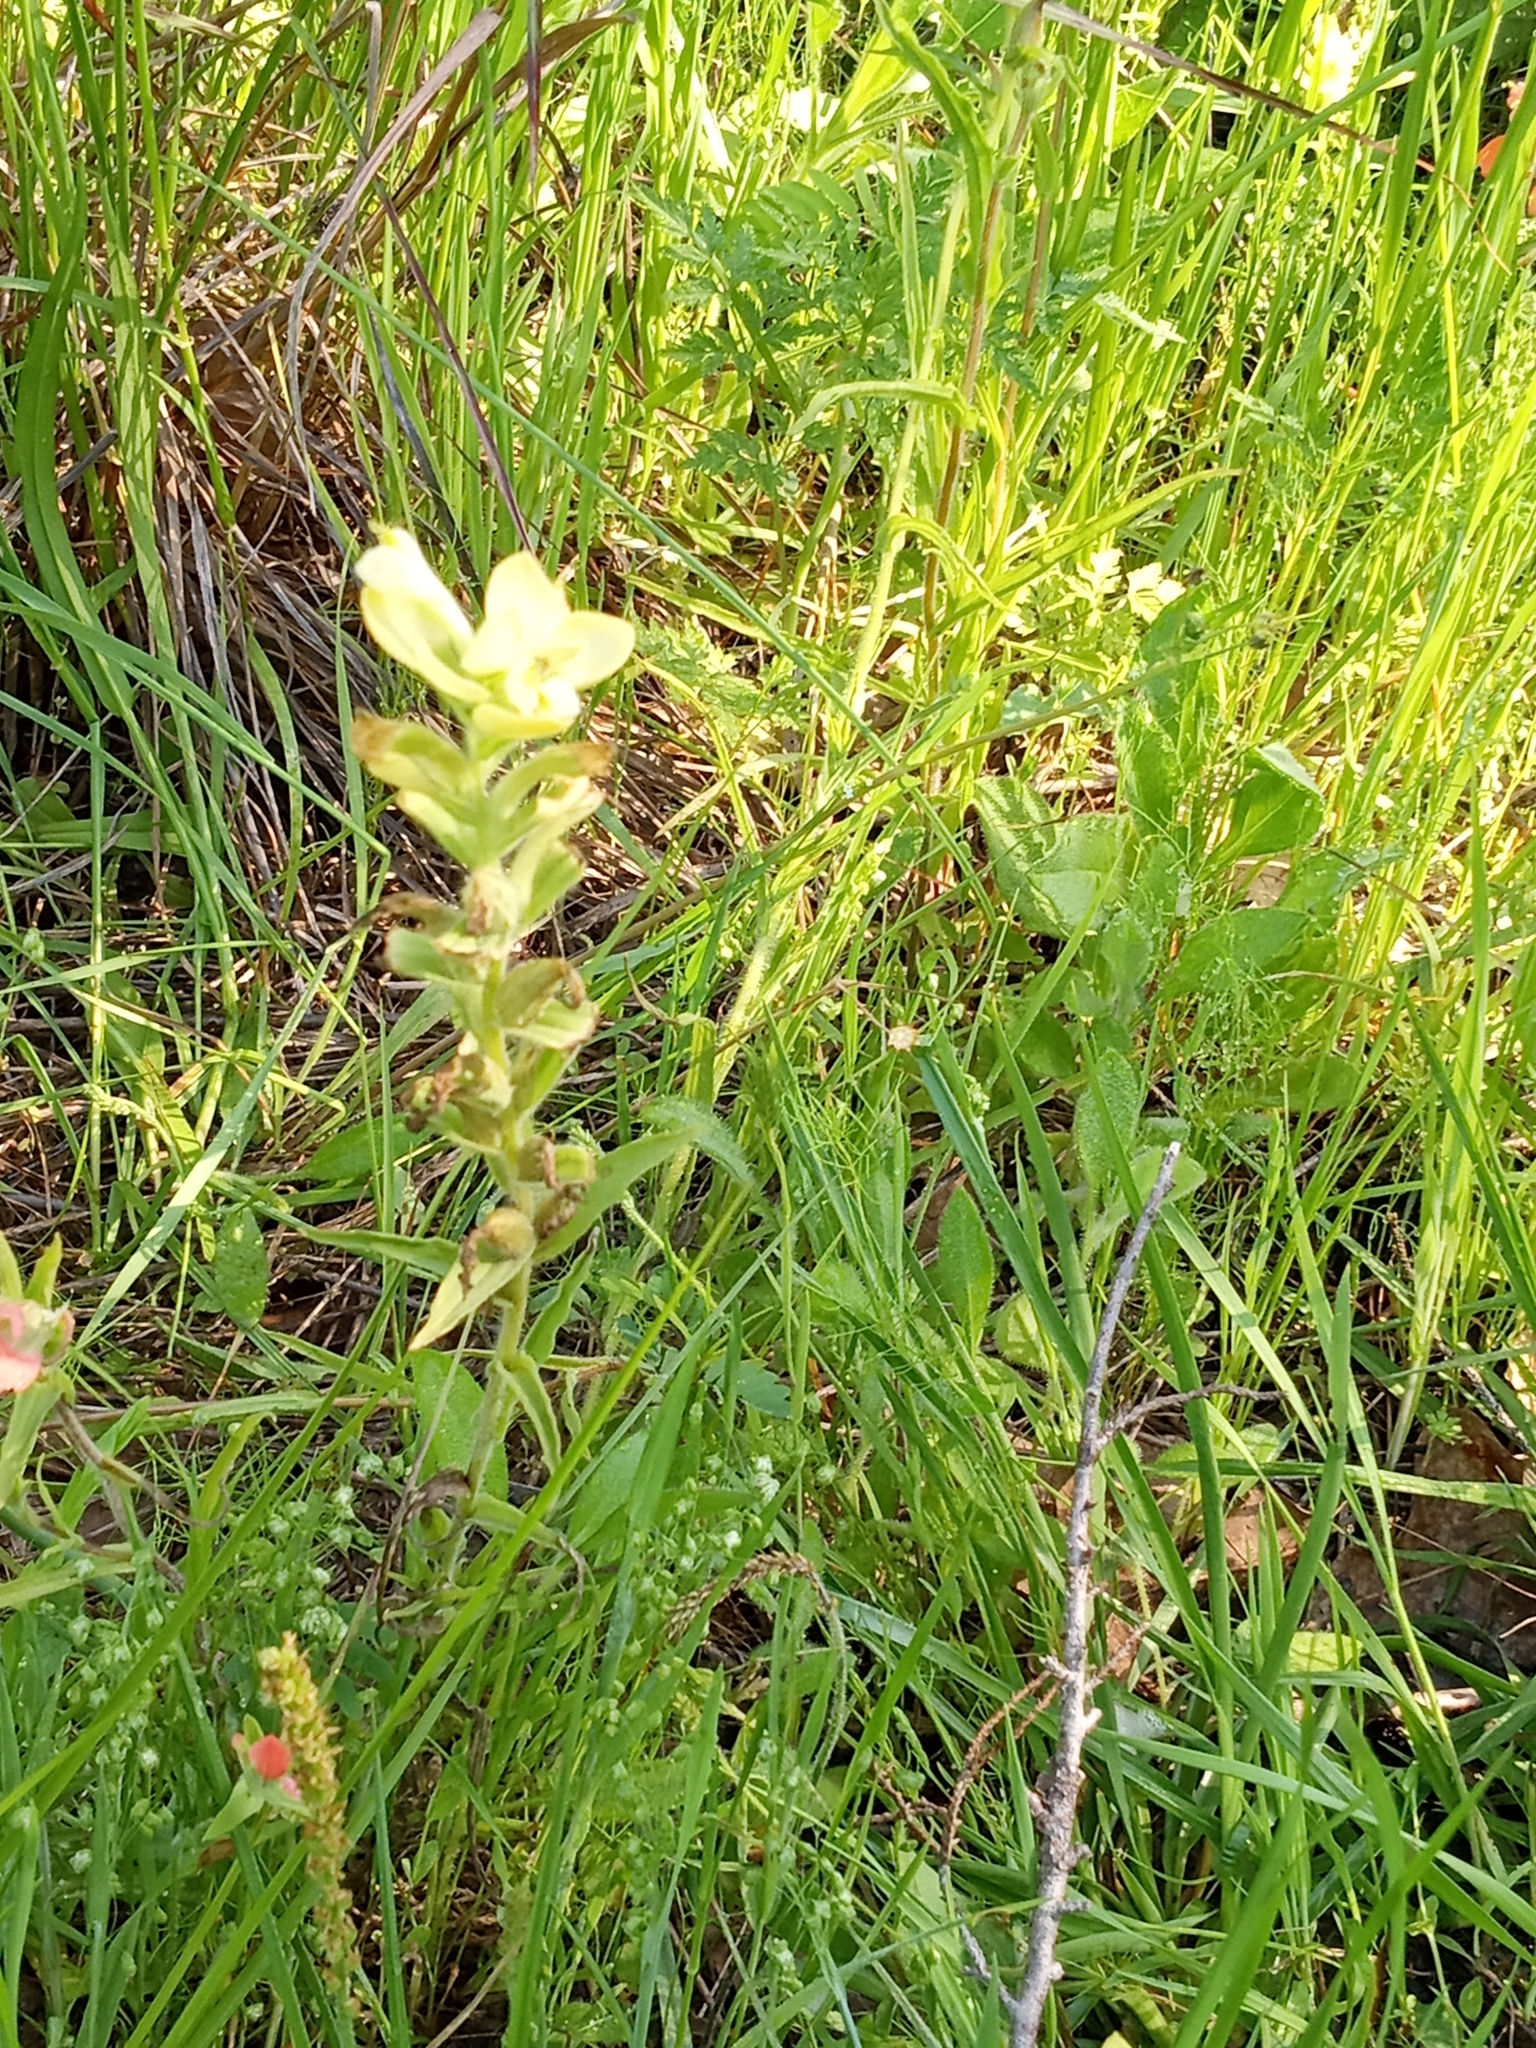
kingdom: Plantae
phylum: Tracheophyta
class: Magnoliopsida
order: Lamiales
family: Orobanchaceae
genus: Castilleja
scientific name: Castilleja indivisa
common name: Texas paintbrush
